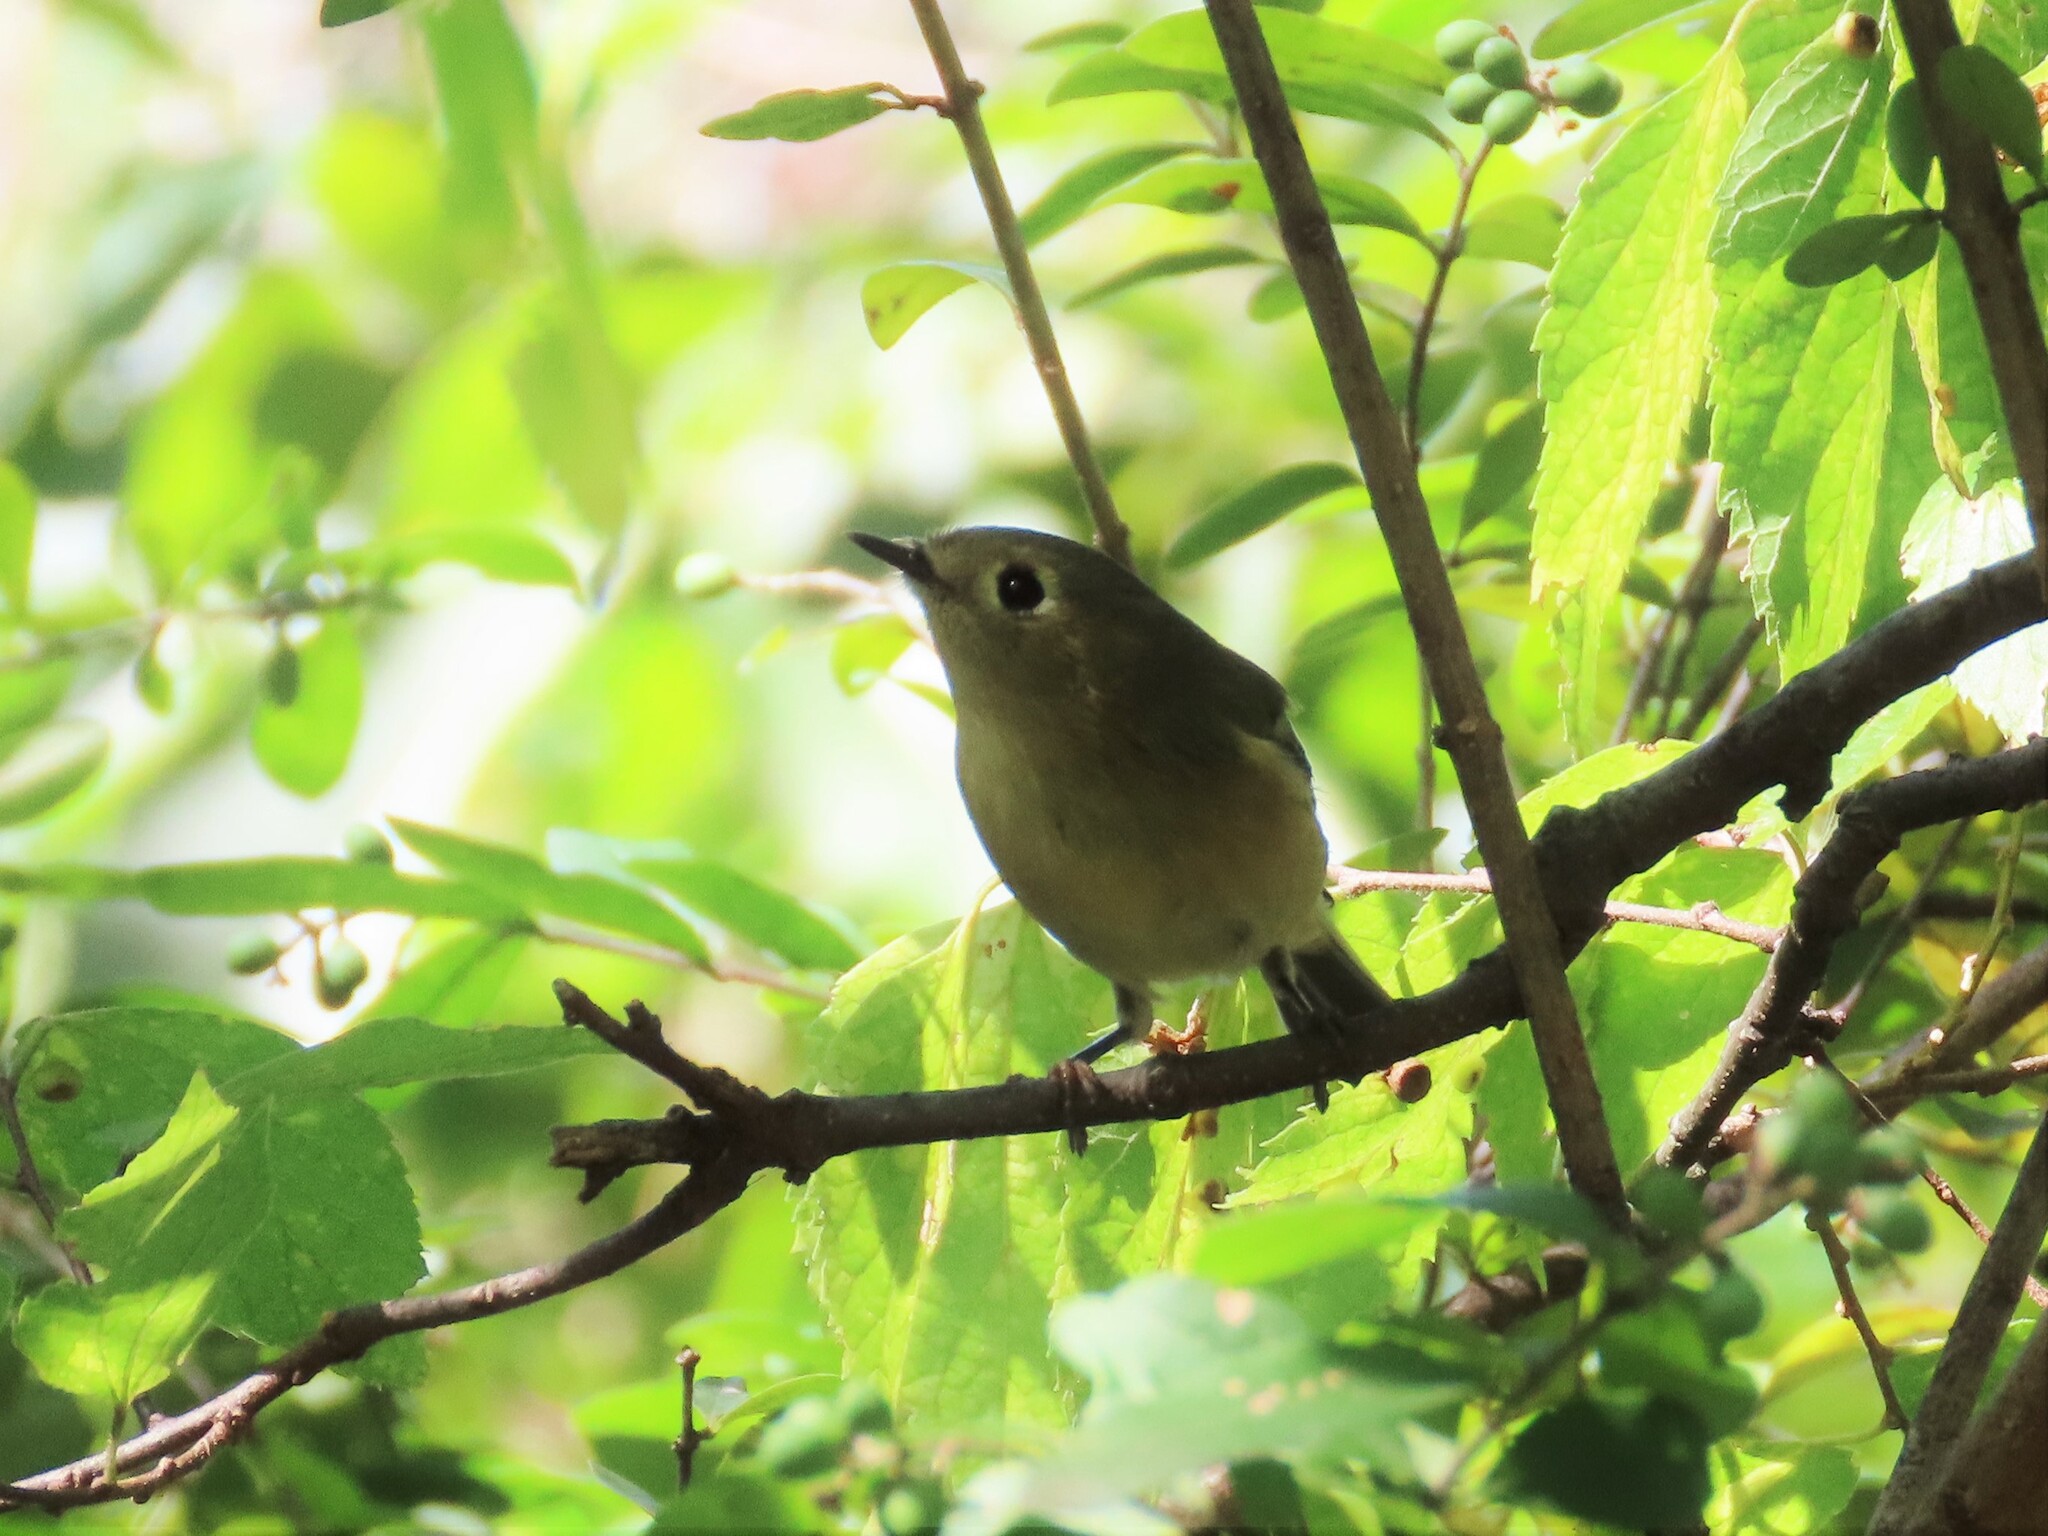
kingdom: Animalia
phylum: Chordata
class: Aves
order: Passeriformes
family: Regulidae
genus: Regulus
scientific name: Regulus calendula
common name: Ruby-crowned kinglet
